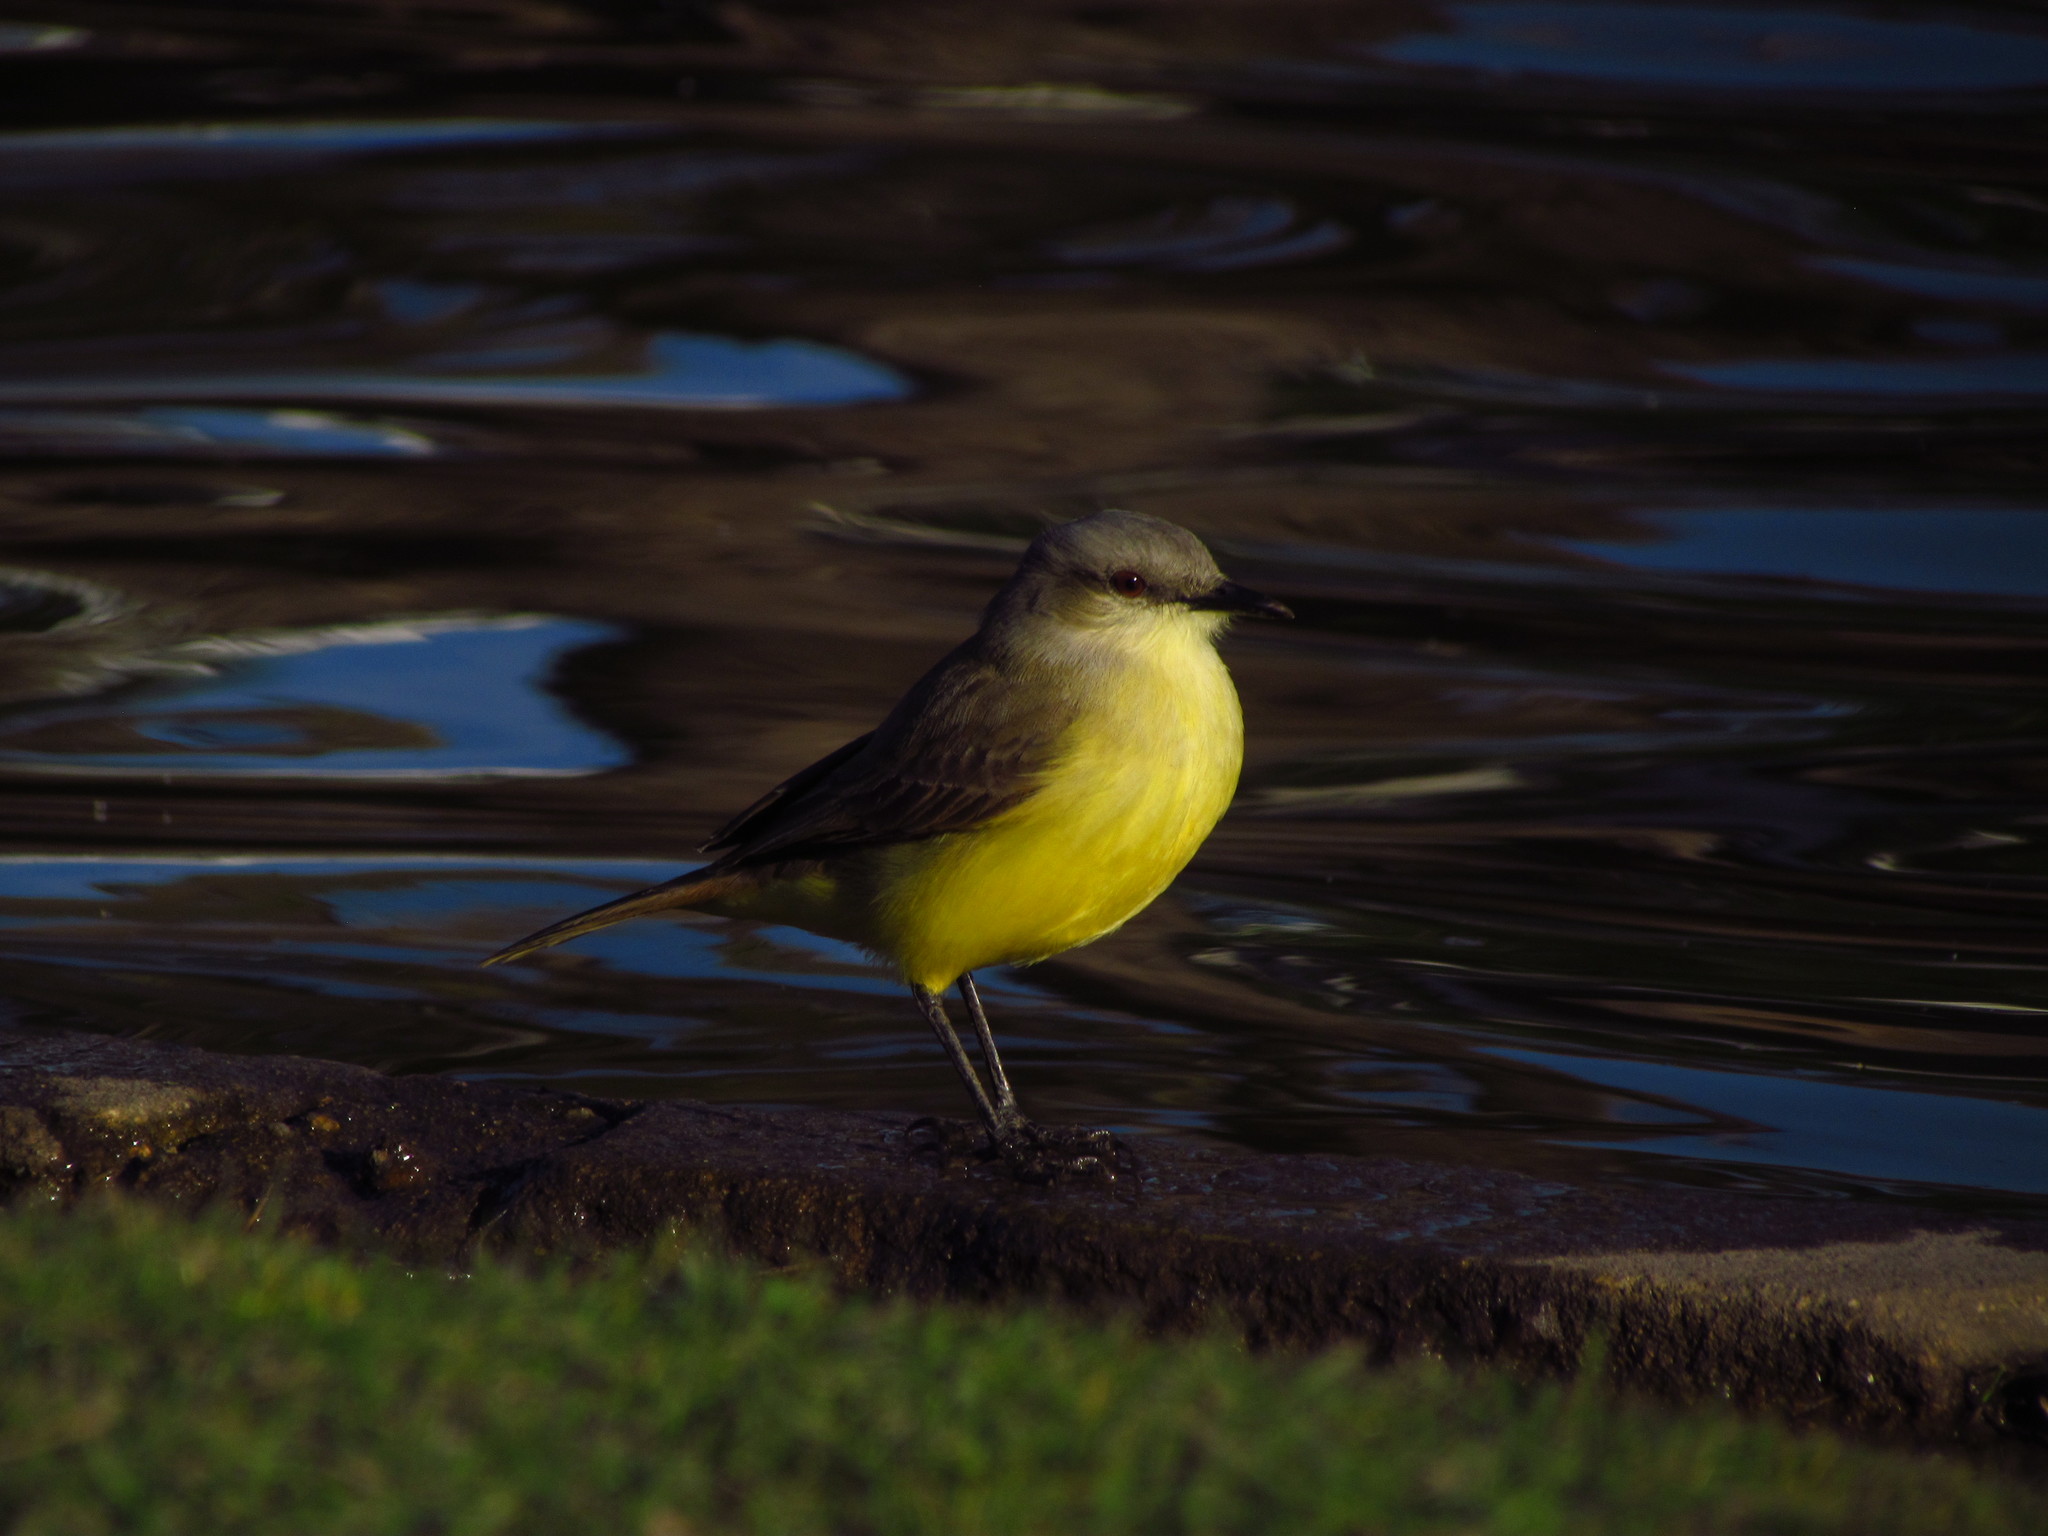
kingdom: Animalia
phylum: Chordata
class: Aves
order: Passeriformes
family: Tyrannidae
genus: Machetornis
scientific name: Machetornis rixosa
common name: Cattle tyrant
